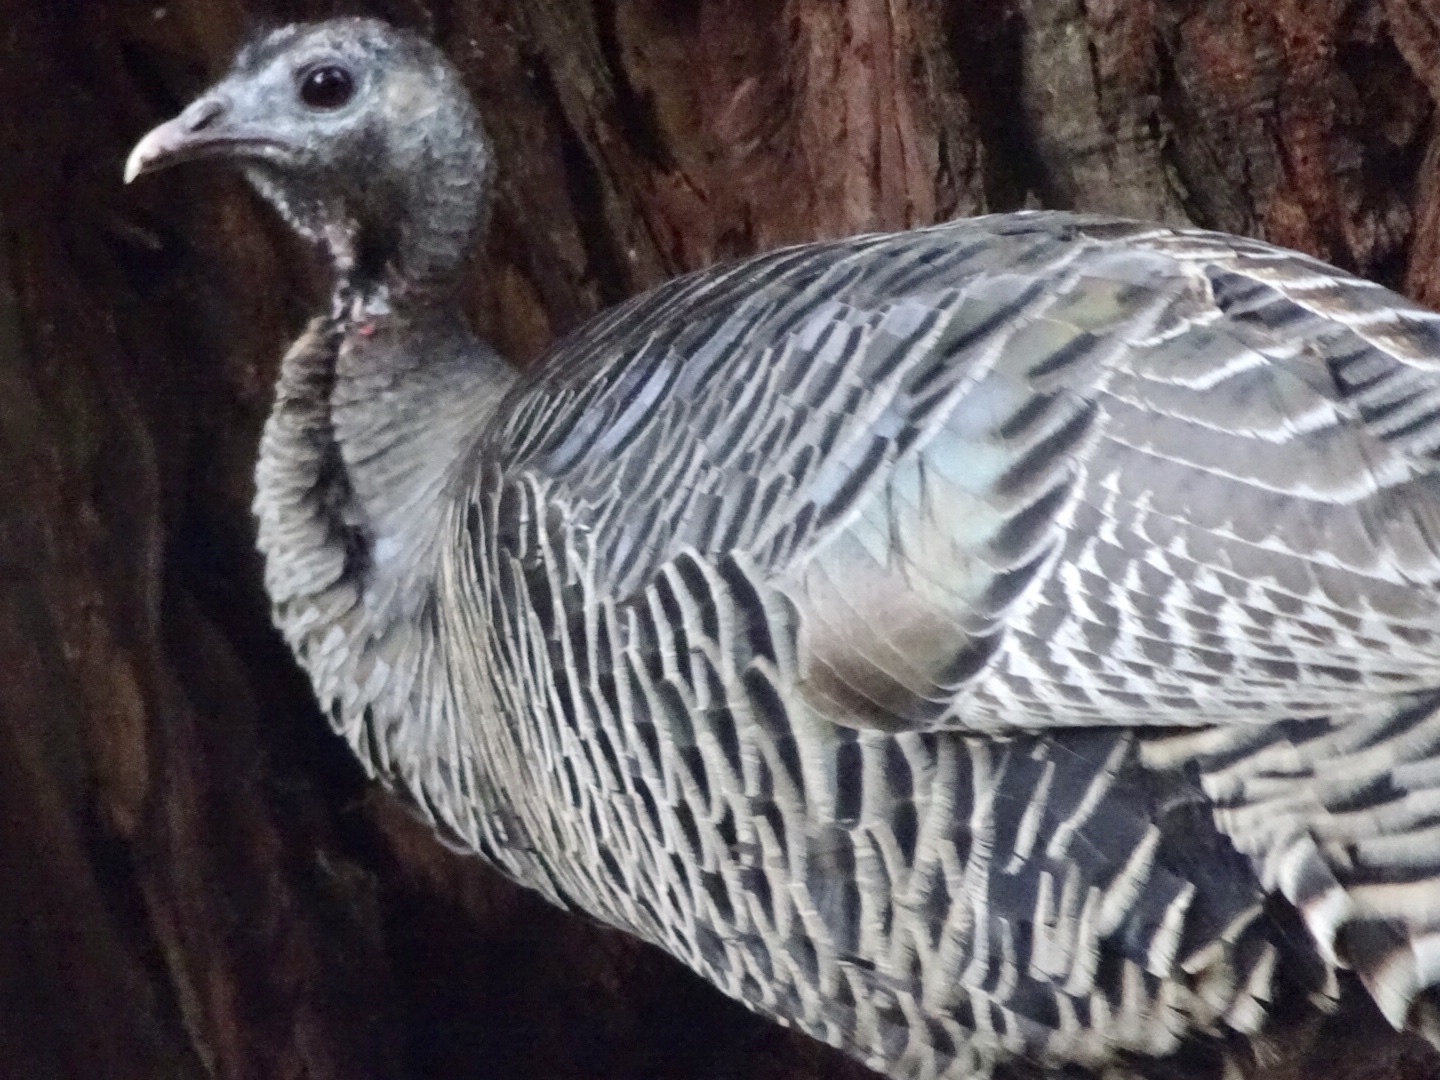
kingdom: Animalia
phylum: Chordata
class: Aves
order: Galliformes
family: Phasianidae
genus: Meleagris
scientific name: Meleagris gallopavo
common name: Wild turkey
